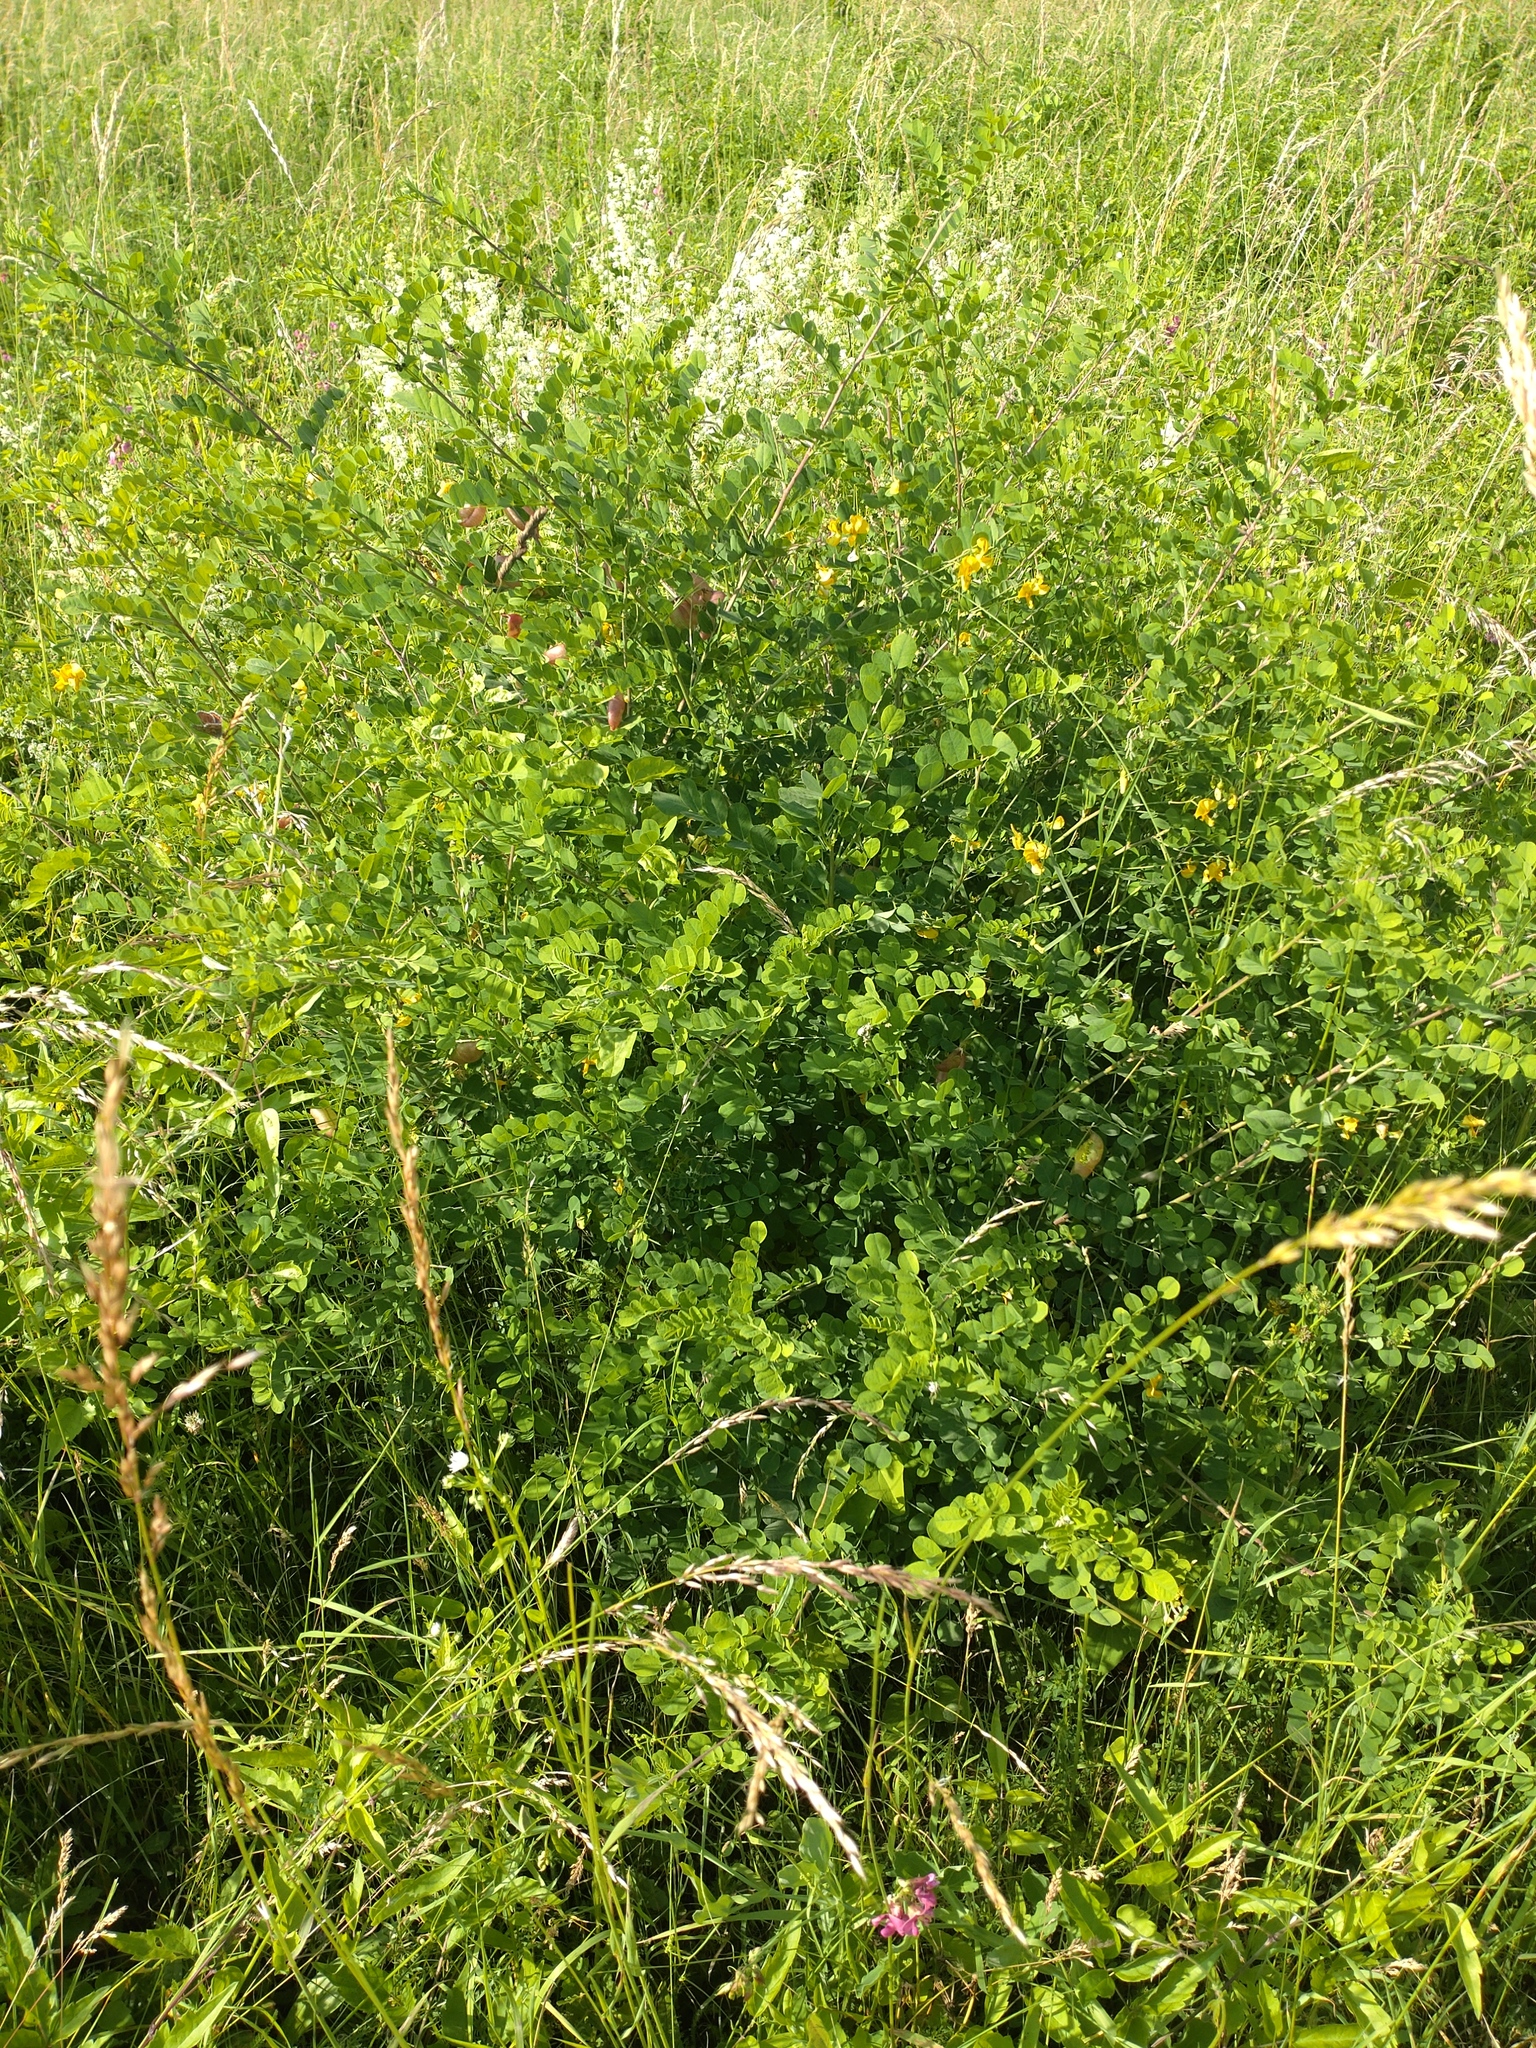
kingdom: Plantae
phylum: Tracheophyta
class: Magnoliopsida
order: Fabales
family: Fabaceae
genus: Colutea
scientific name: Colutea arborescens
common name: Bladder-senna
